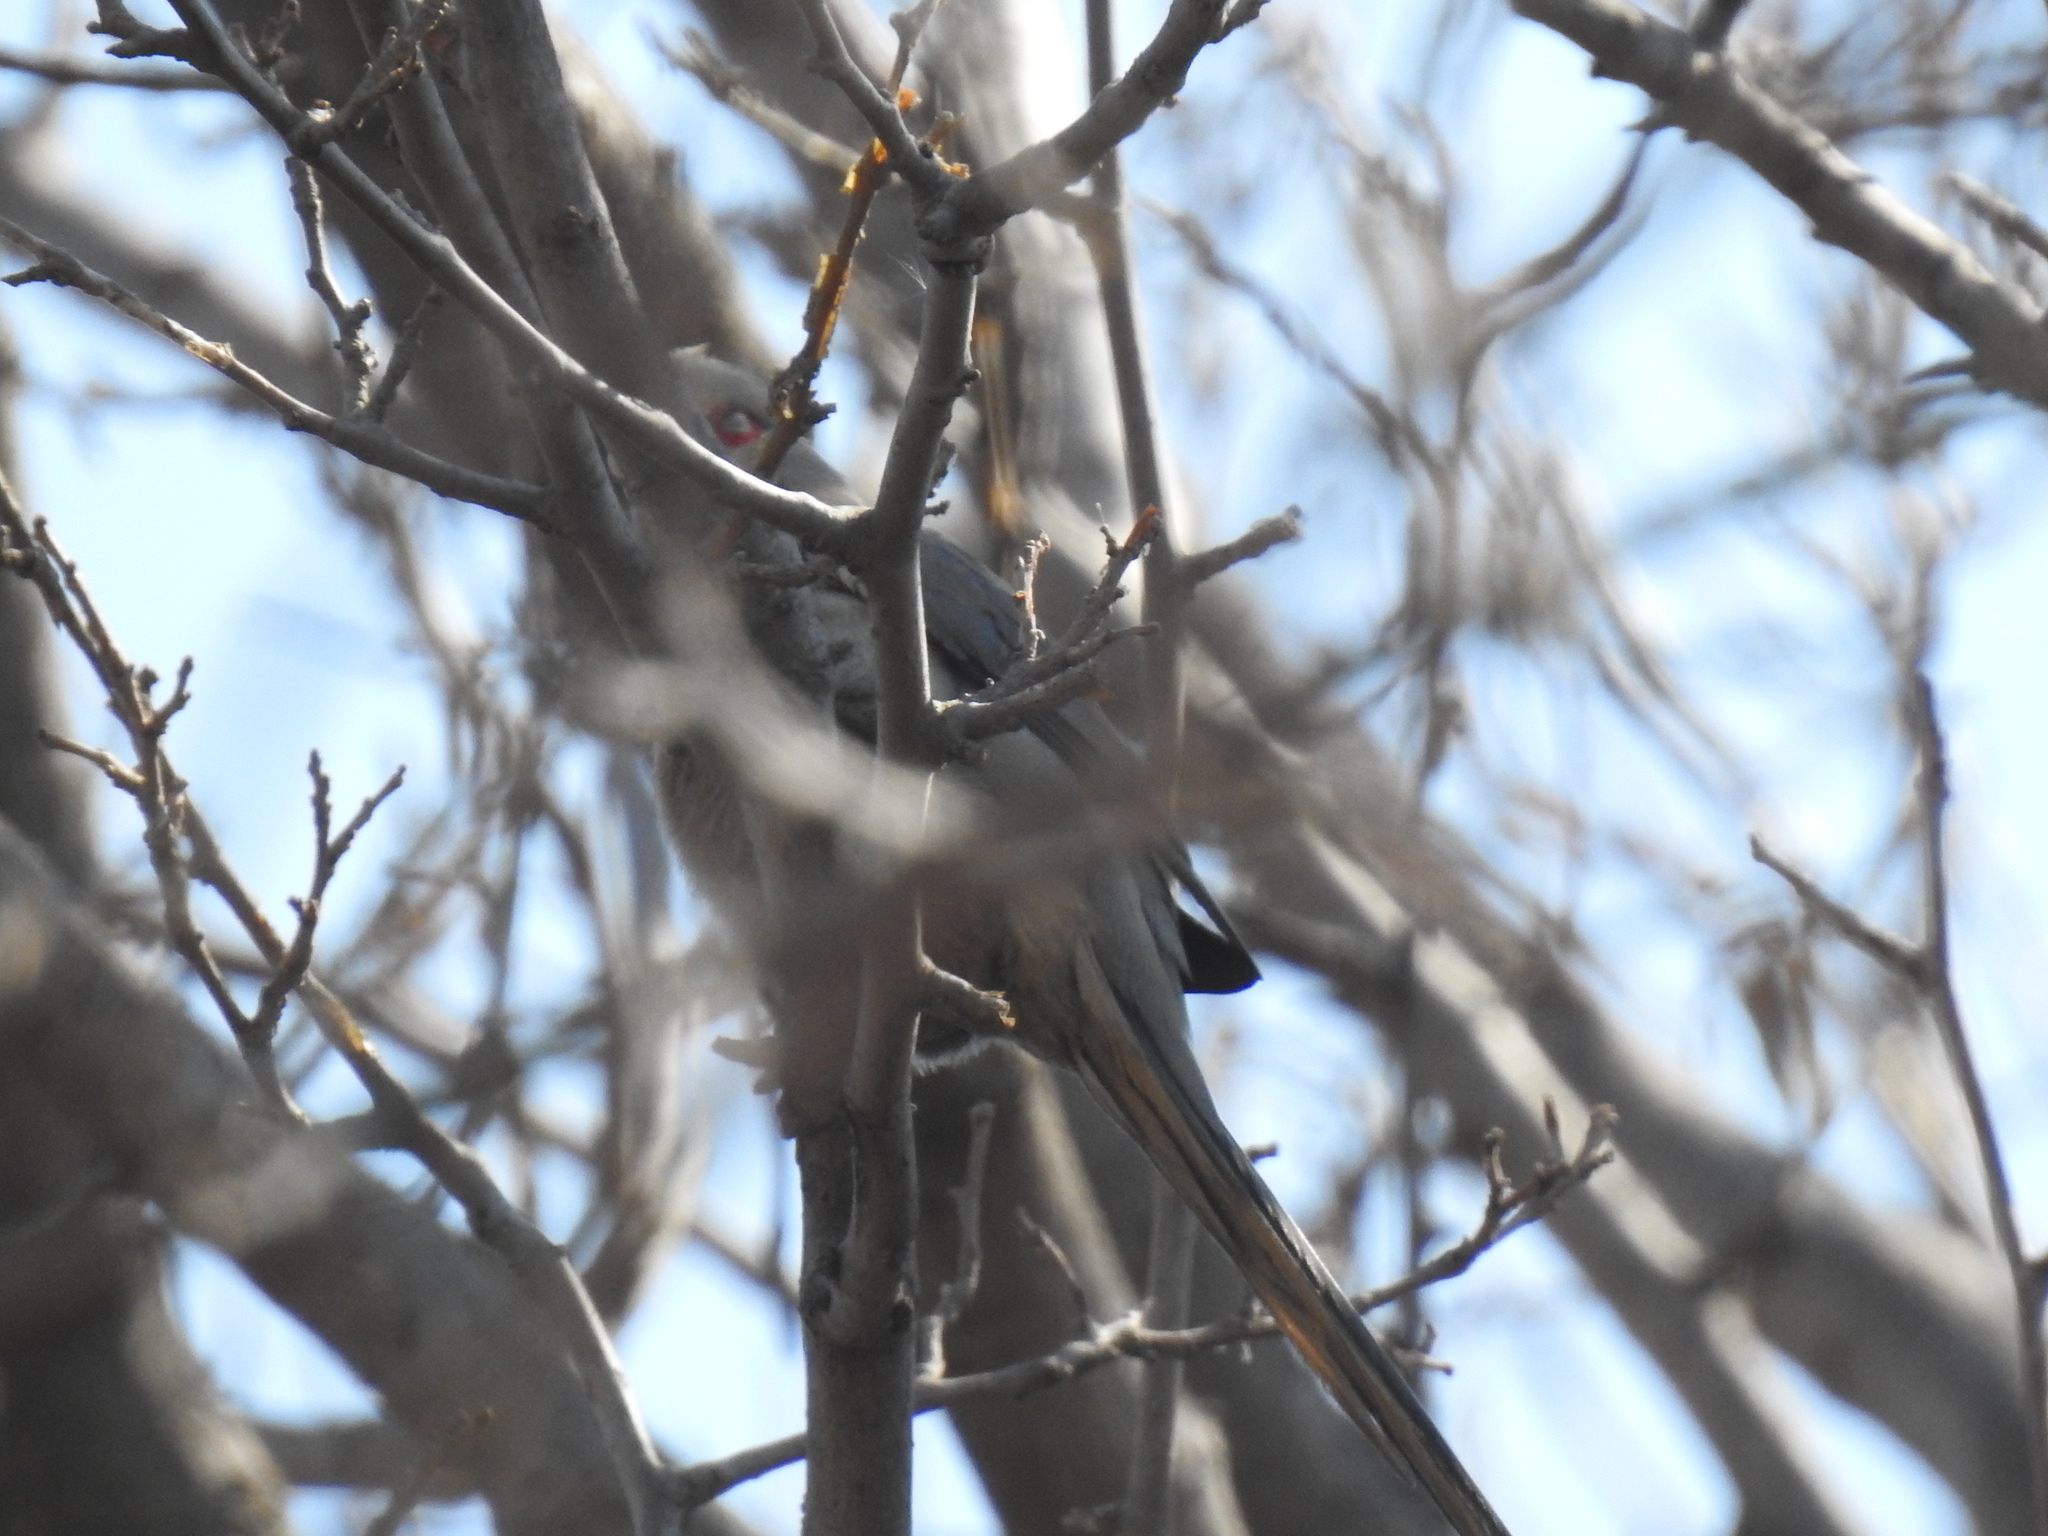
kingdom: Animalia
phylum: Chordata
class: Aves
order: Coliiformes
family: Coliidae
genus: Urocolius
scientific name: Urocolius indicus
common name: Red-faced mousebird
